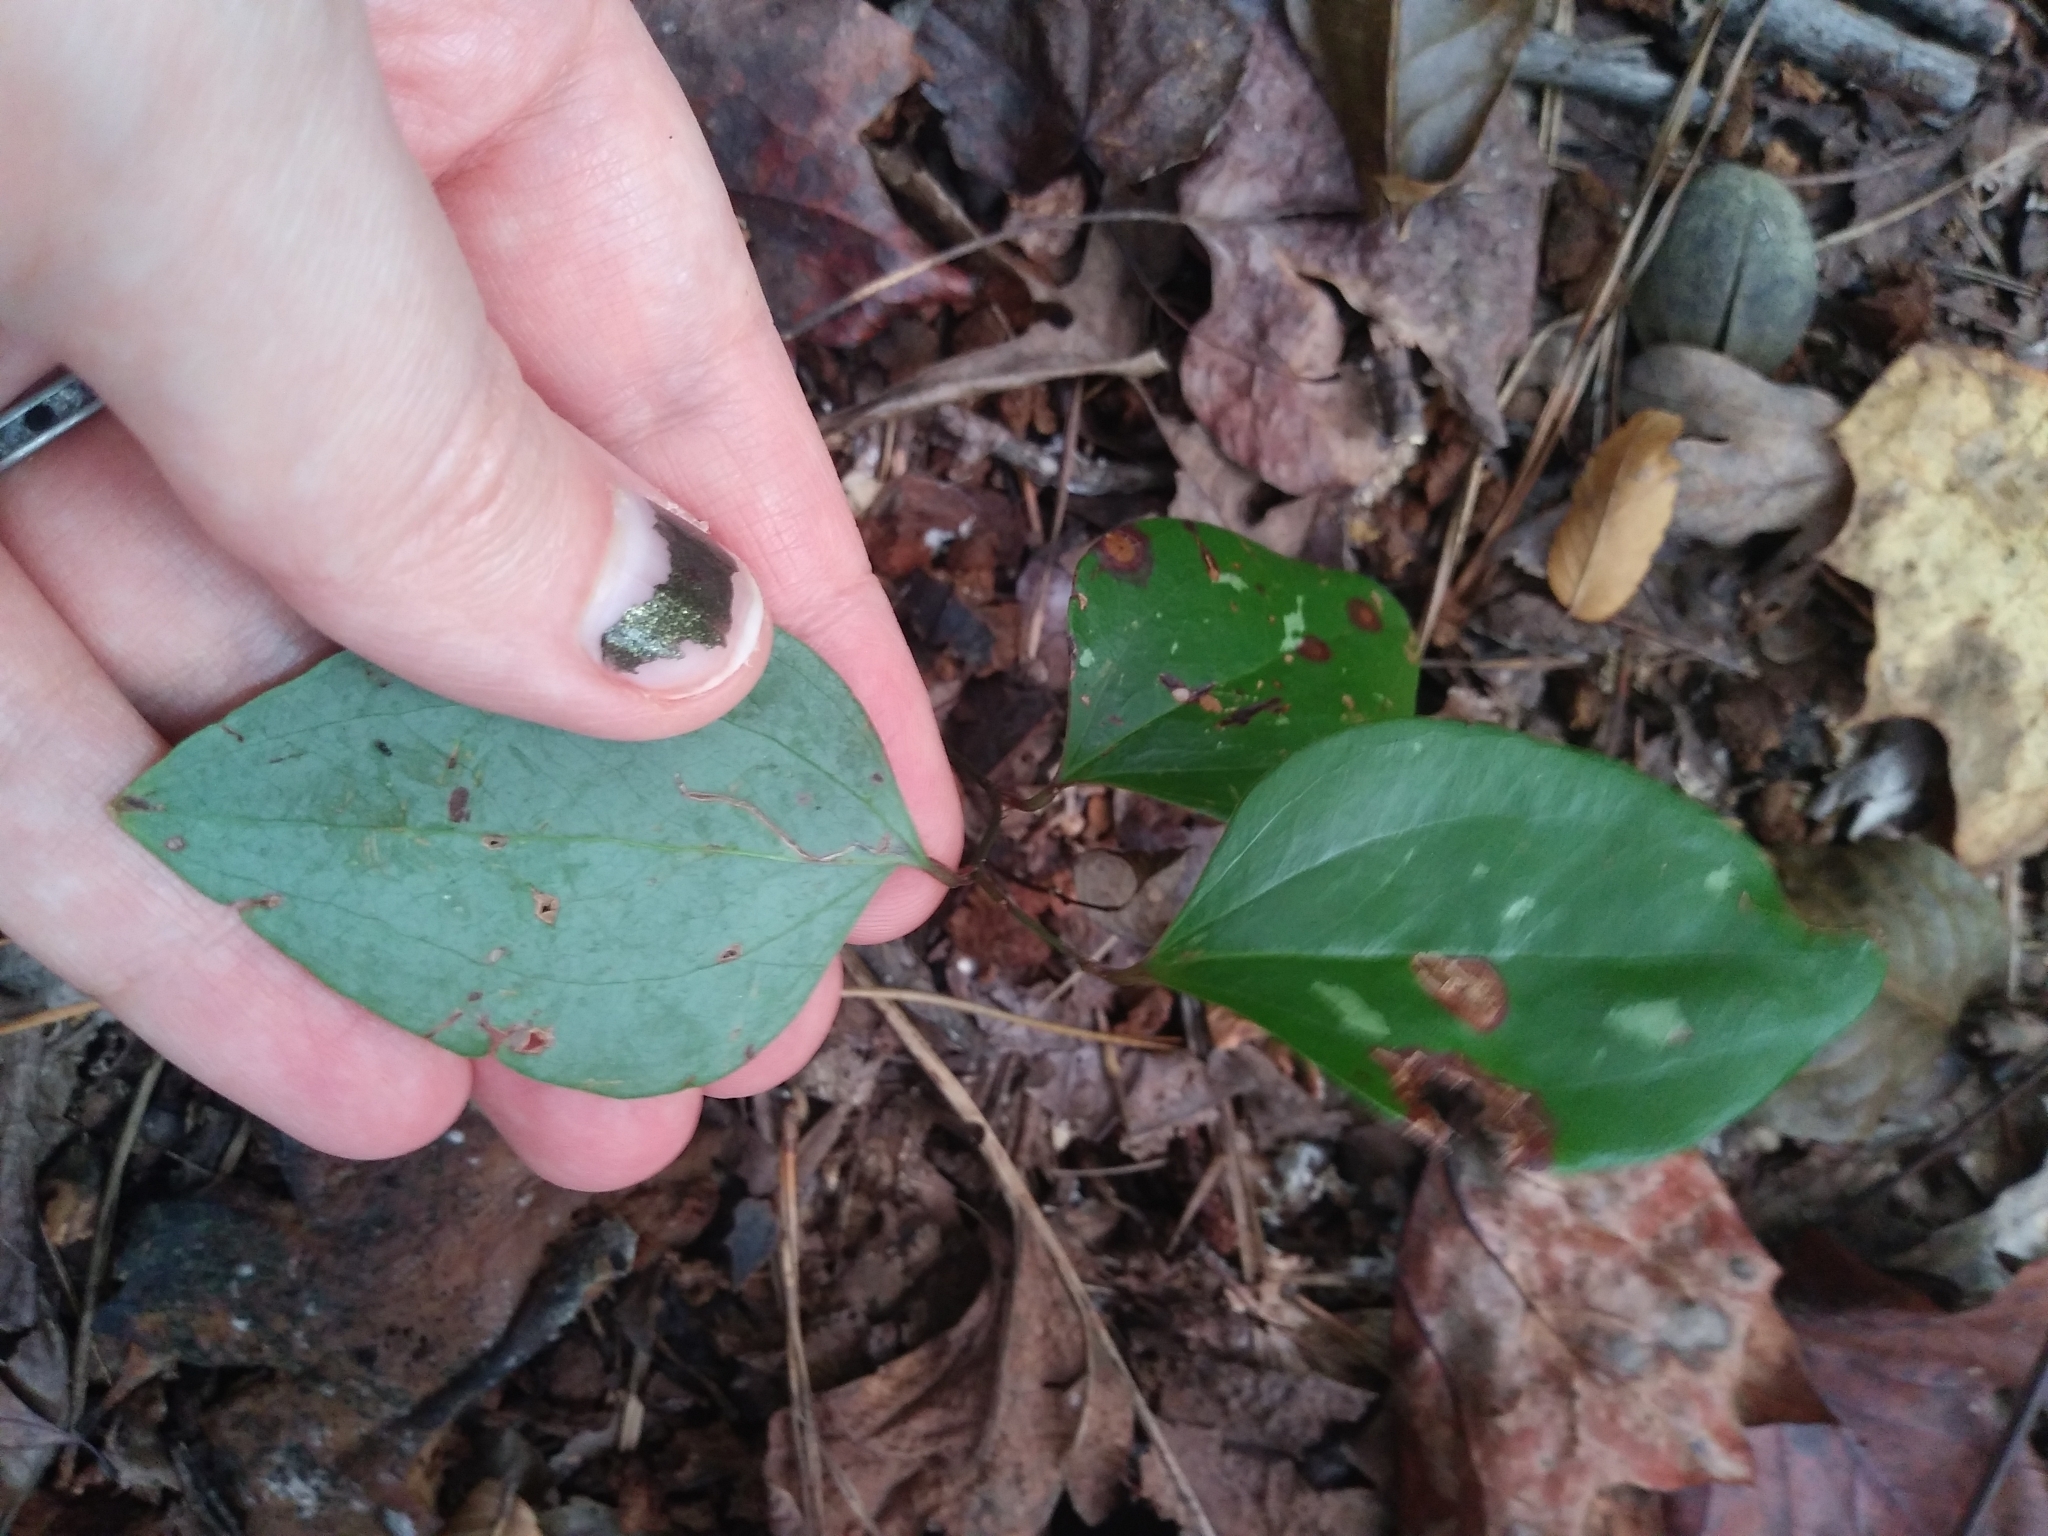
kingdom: Plantae
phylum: Tracheophyta
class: Liliopsida
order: Liliales
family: Smilacaceae
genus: Smilax
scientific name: Smilax glauca
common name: Cat greenbrier
